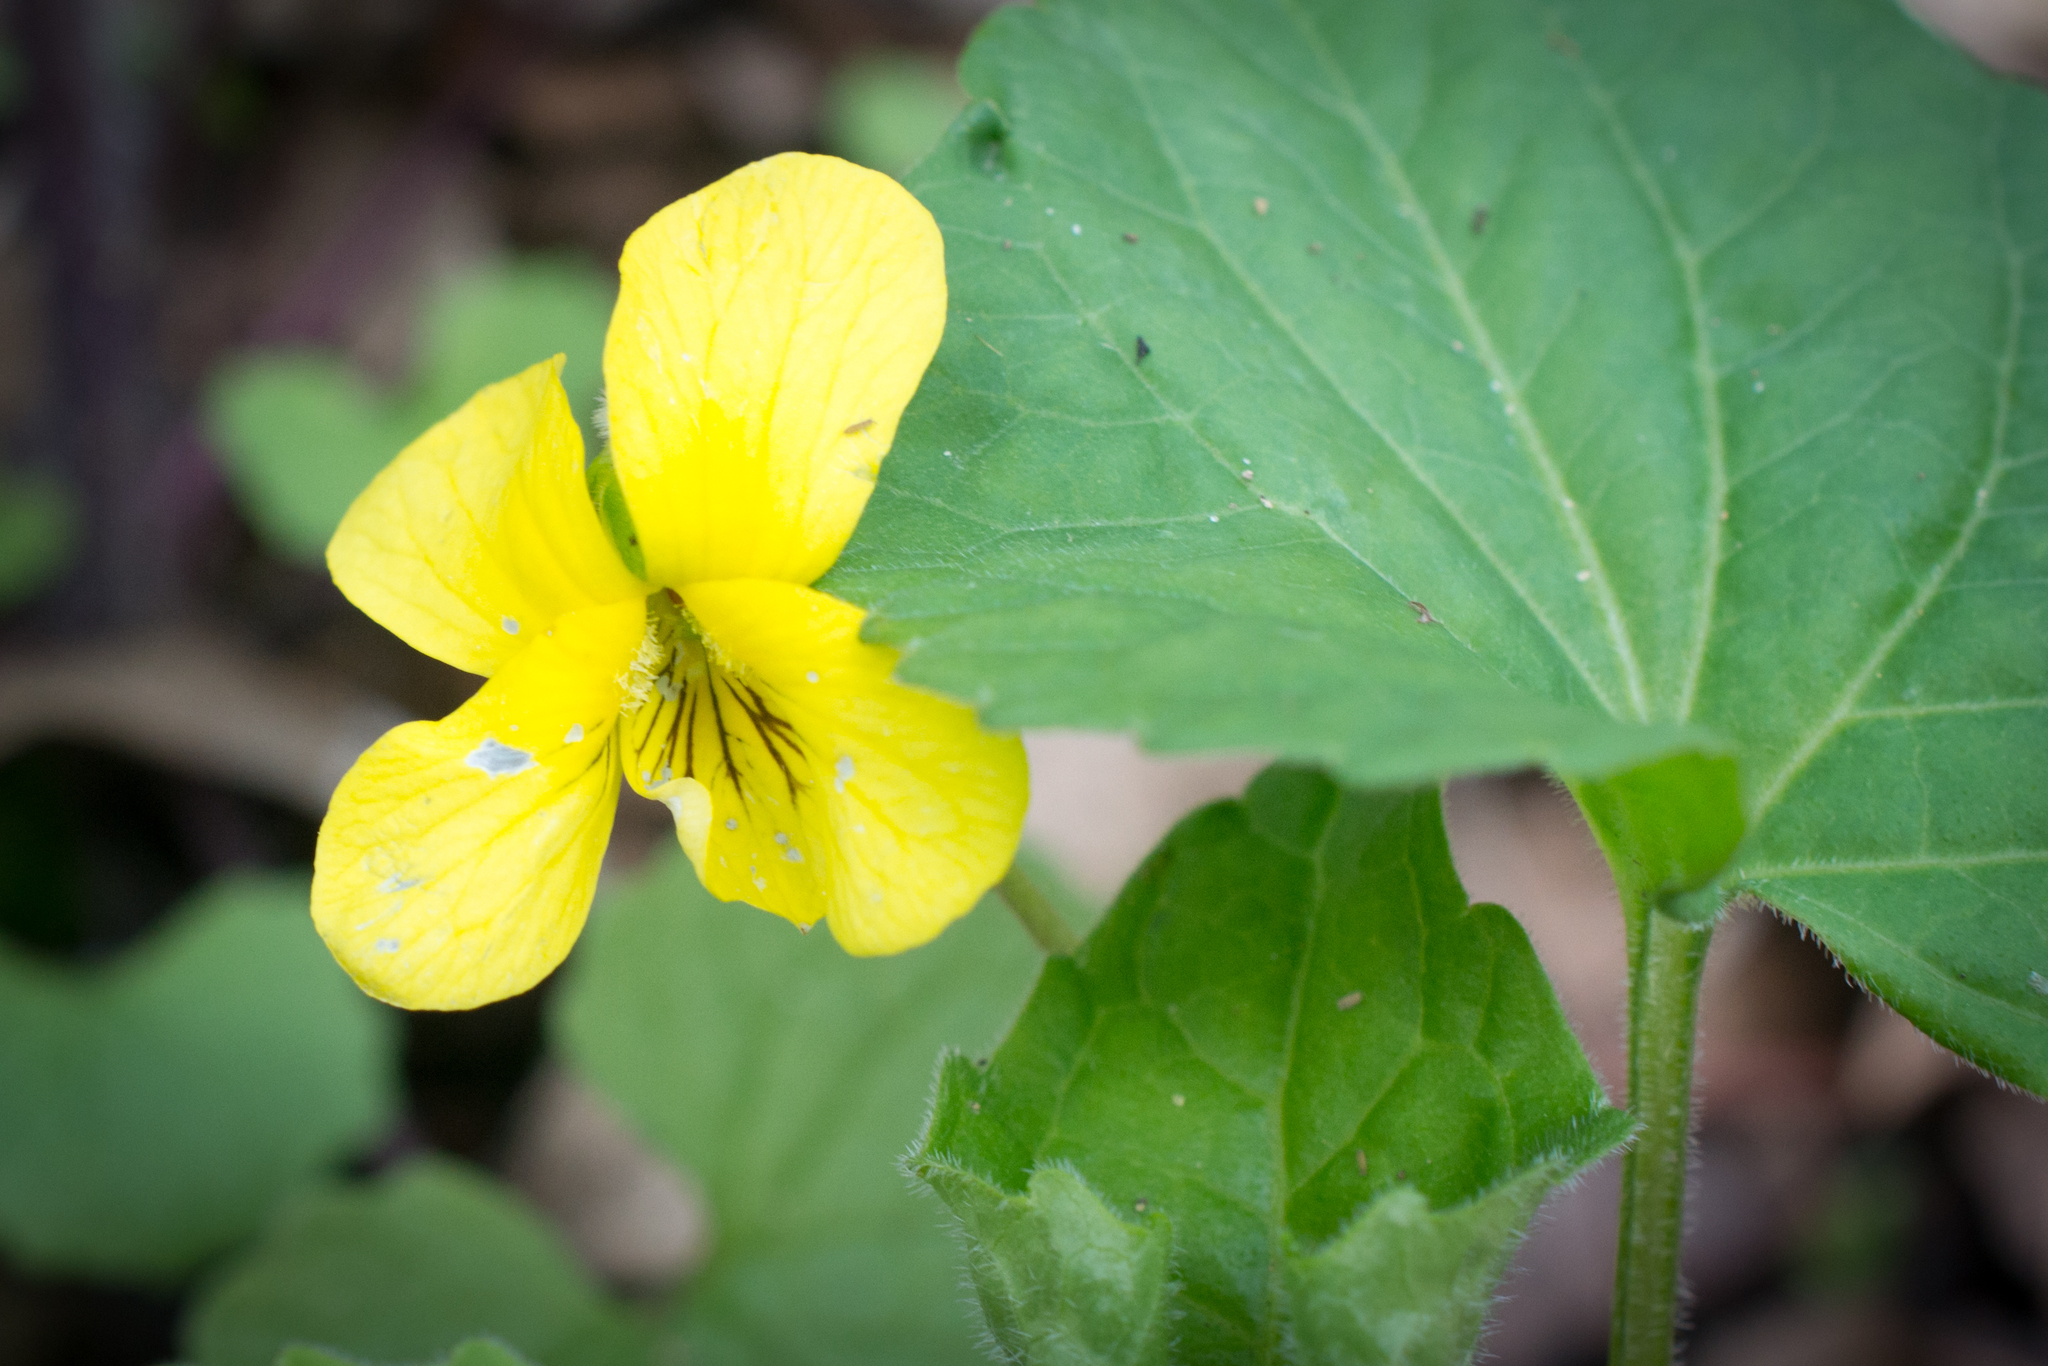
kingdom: Plantae
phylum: Tracheophyta
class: Magnoliopsida
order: Malpighiales
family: Violaceae
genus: Viola
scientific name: Viola eriocarpa
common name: Smooth yellow violet
